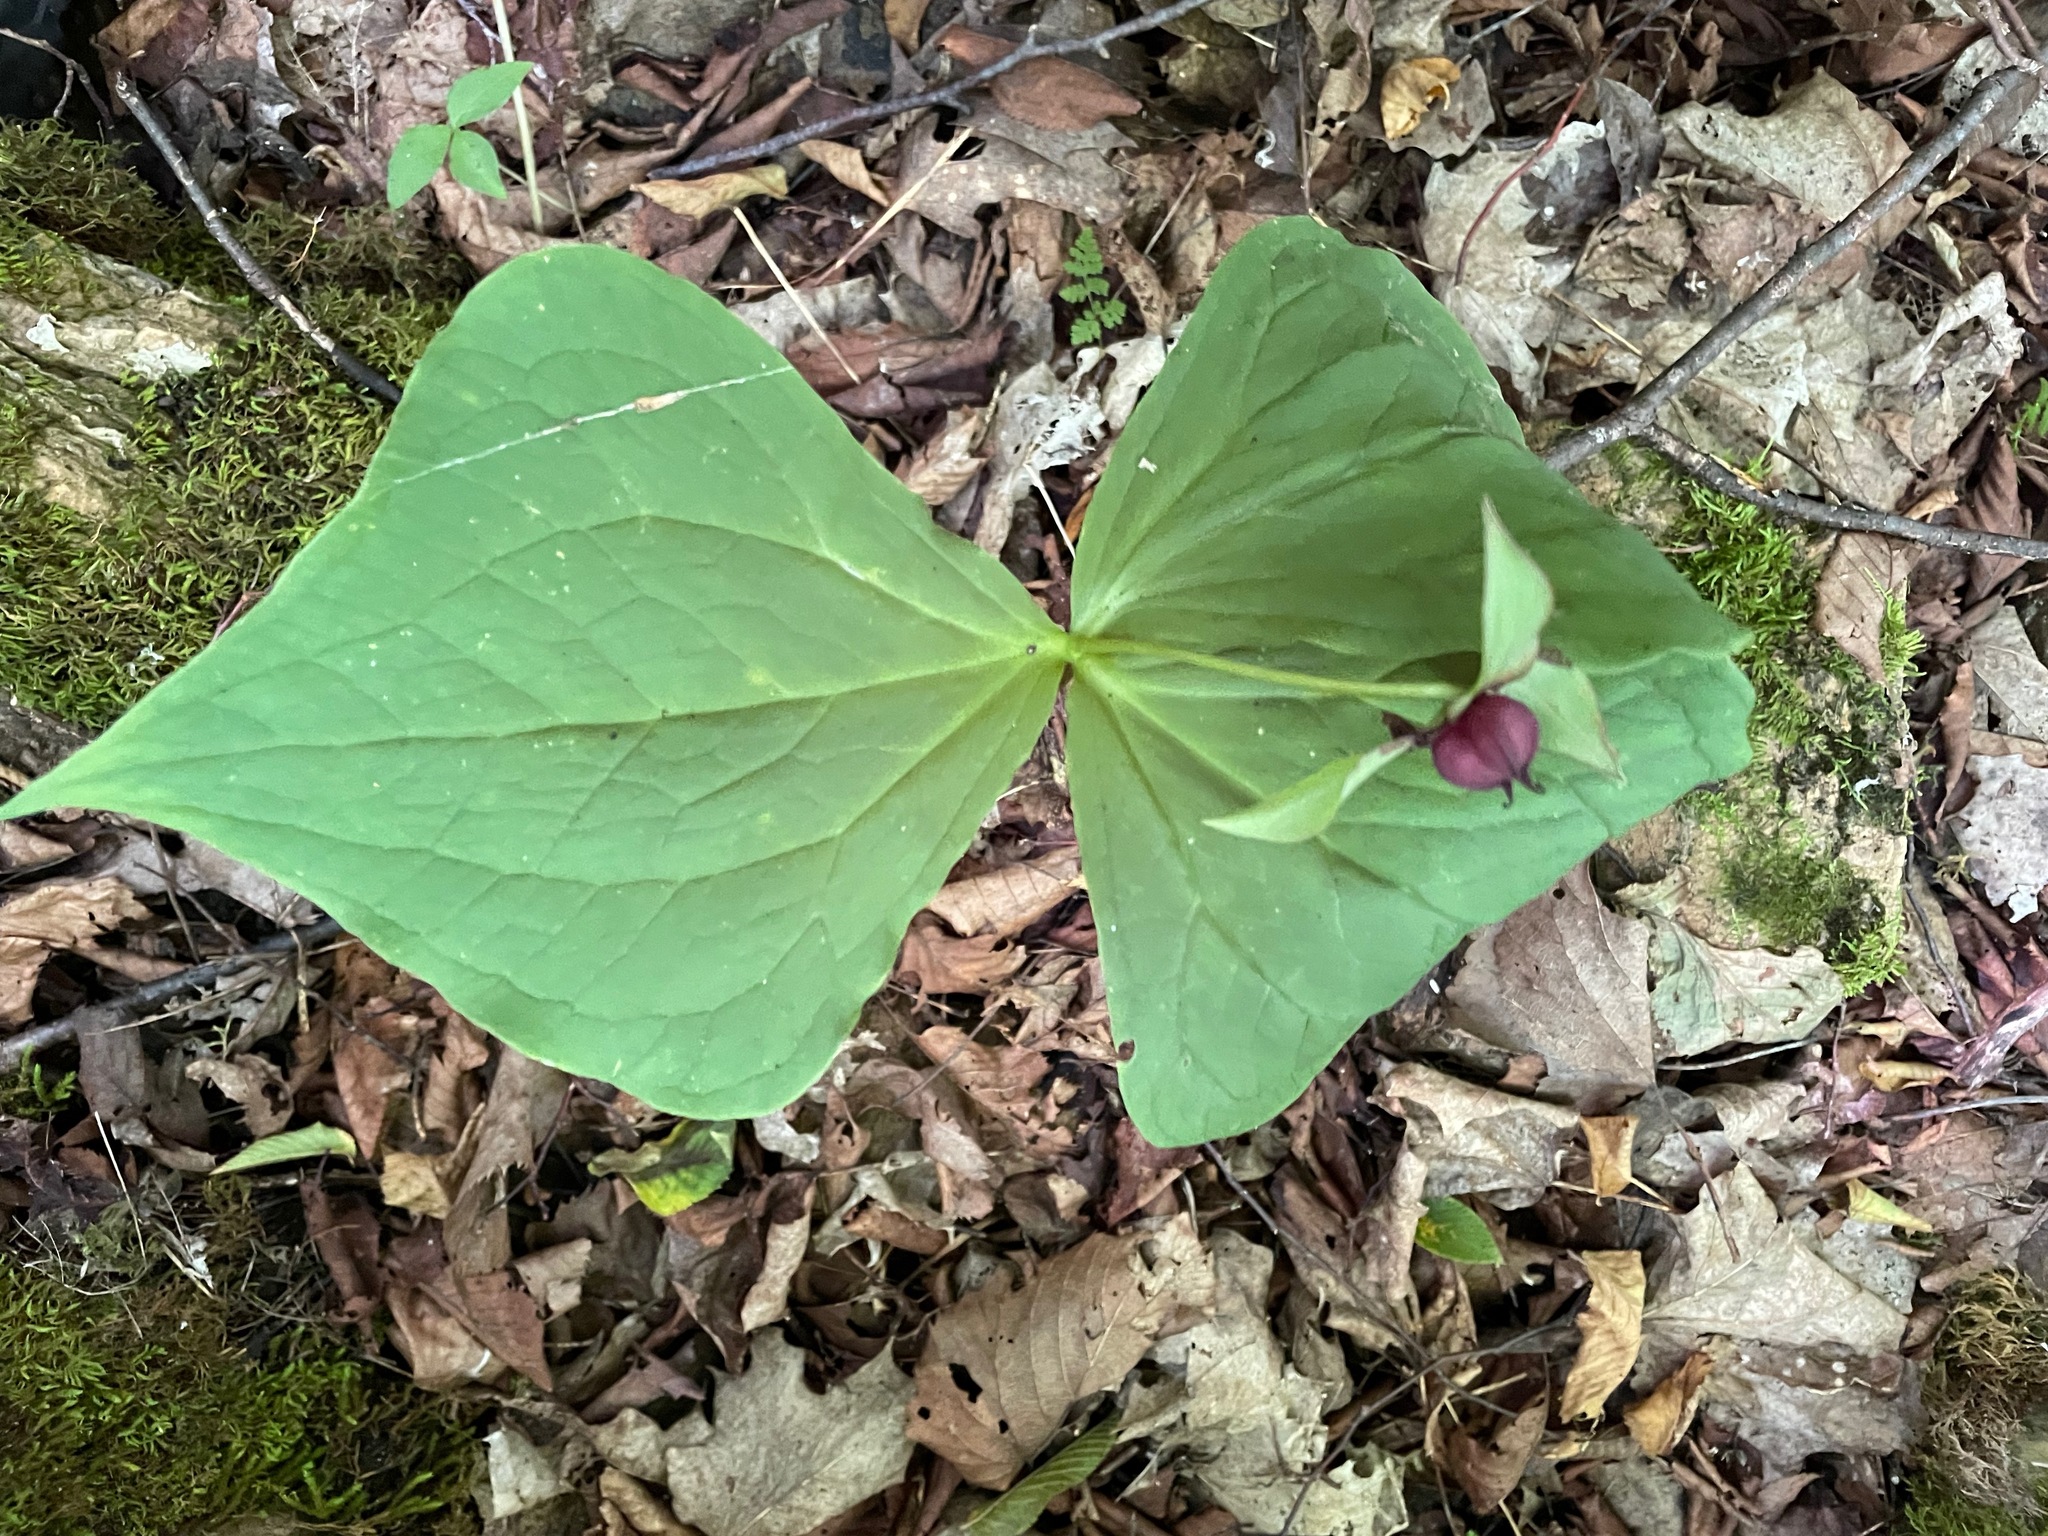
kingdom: Plantae
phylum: Tracheophyta
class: Liliopsida
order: Liliales
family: Melanthiaceae
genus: Trillium
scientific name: Trillium erectum
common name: Purple trillium
